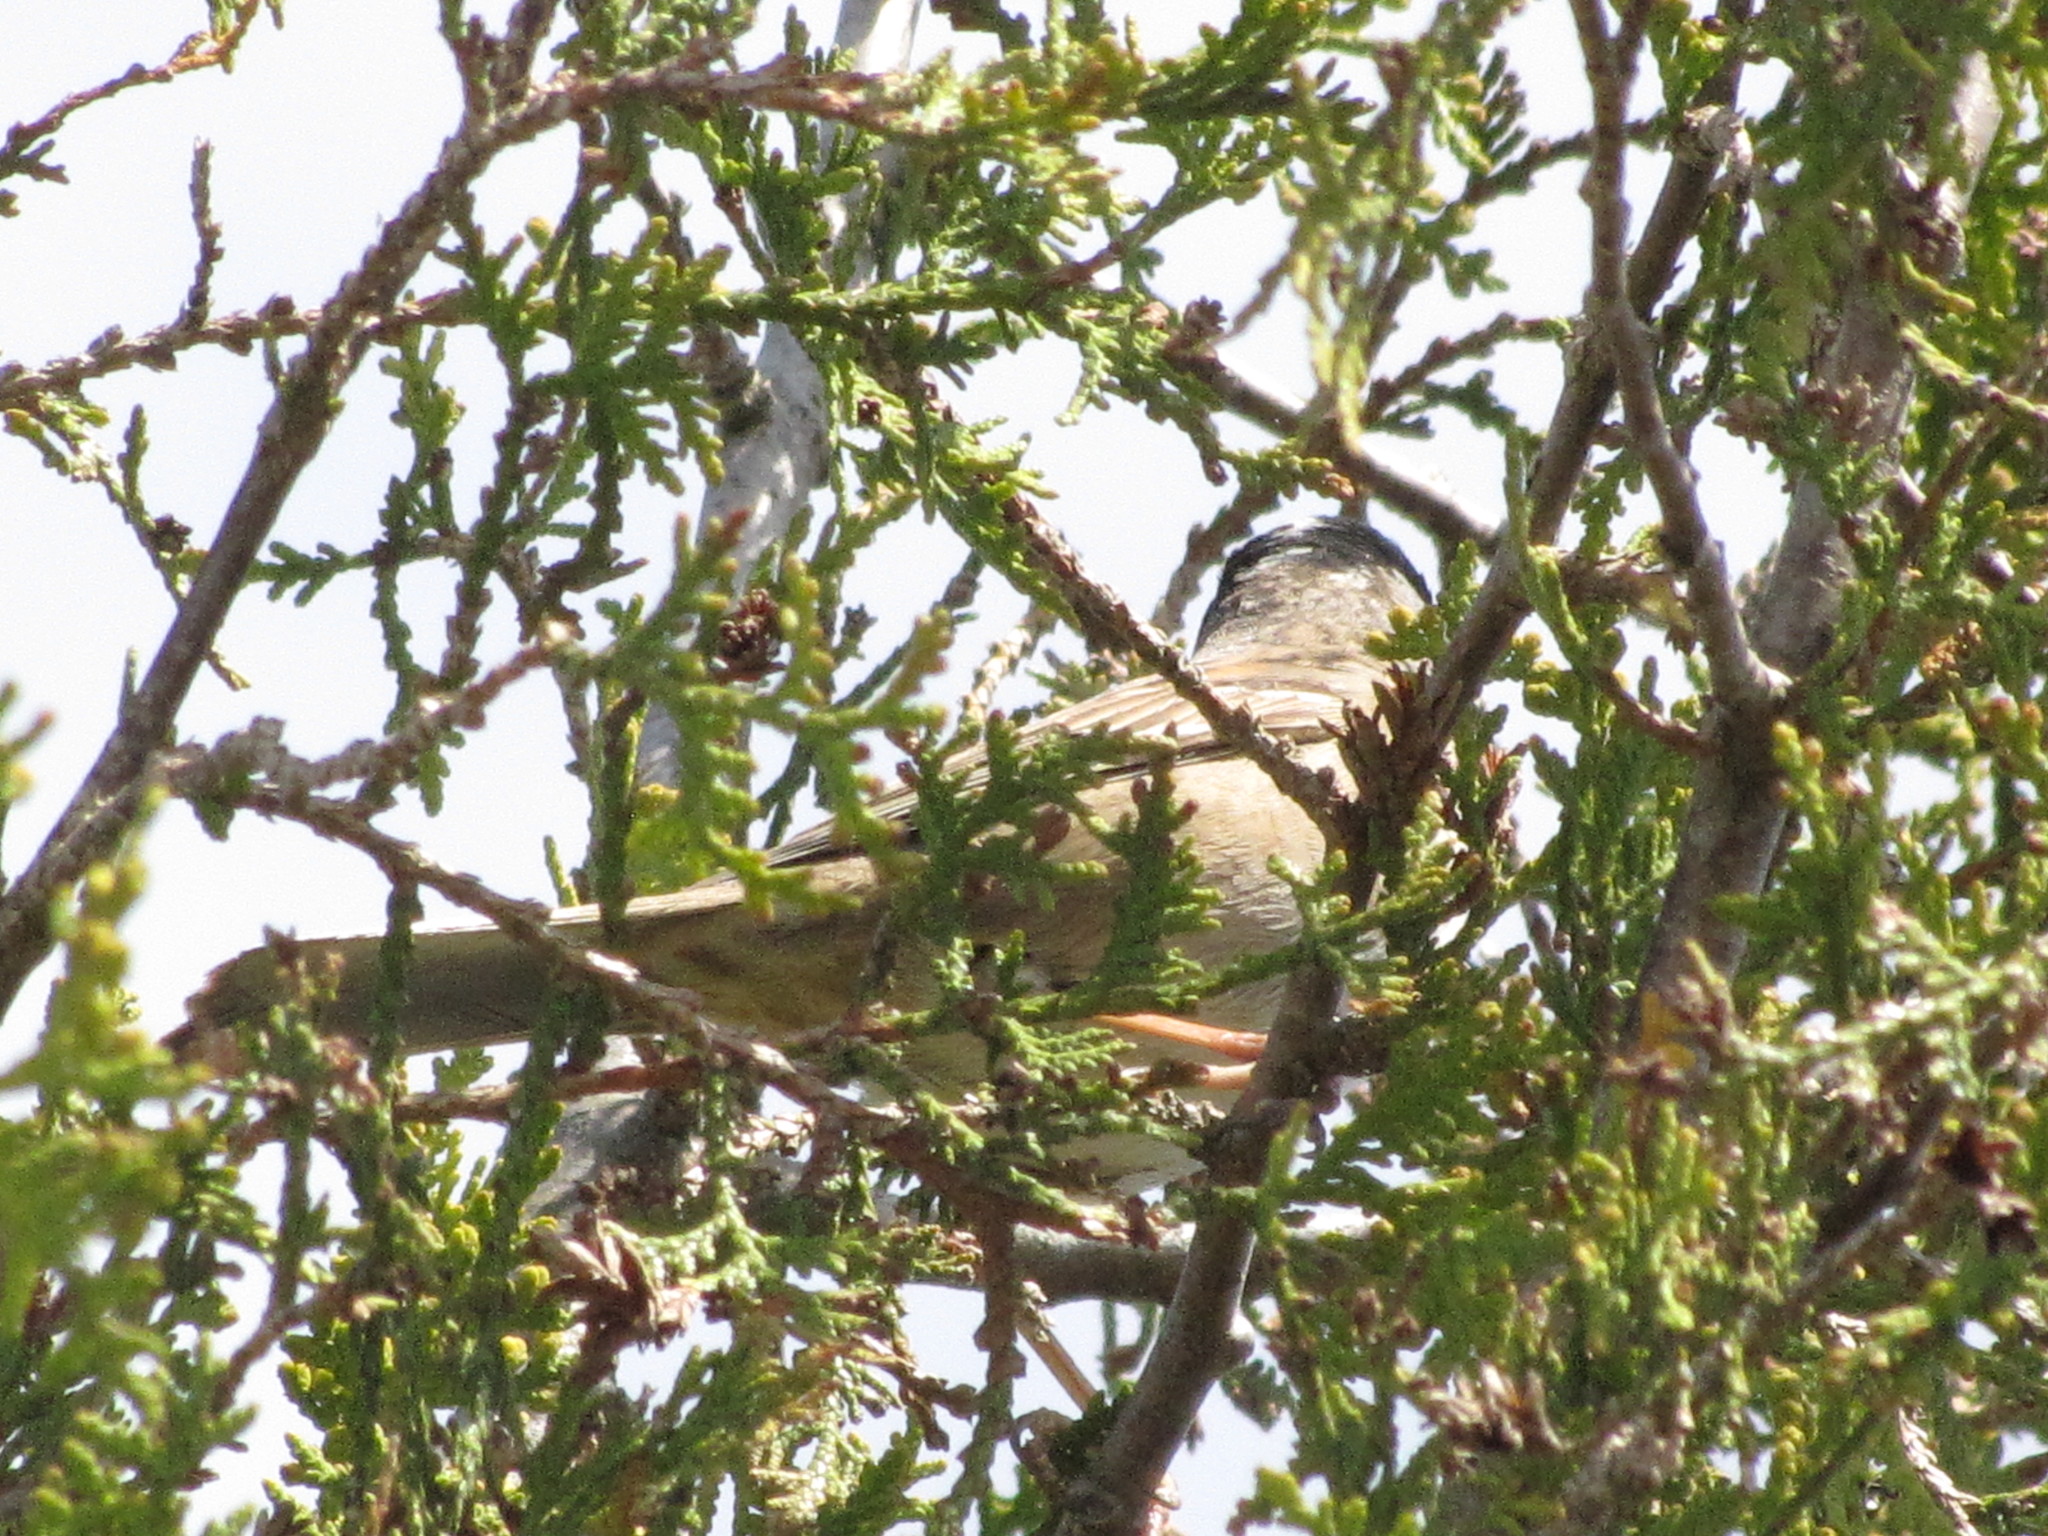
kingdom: Animalia
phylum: Chordata
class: Aves
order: Passeriformes
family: Passerellidae
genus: Zonotrichia
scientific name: Zonotrichia atricapilla
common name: Golden-crowned sparrow
